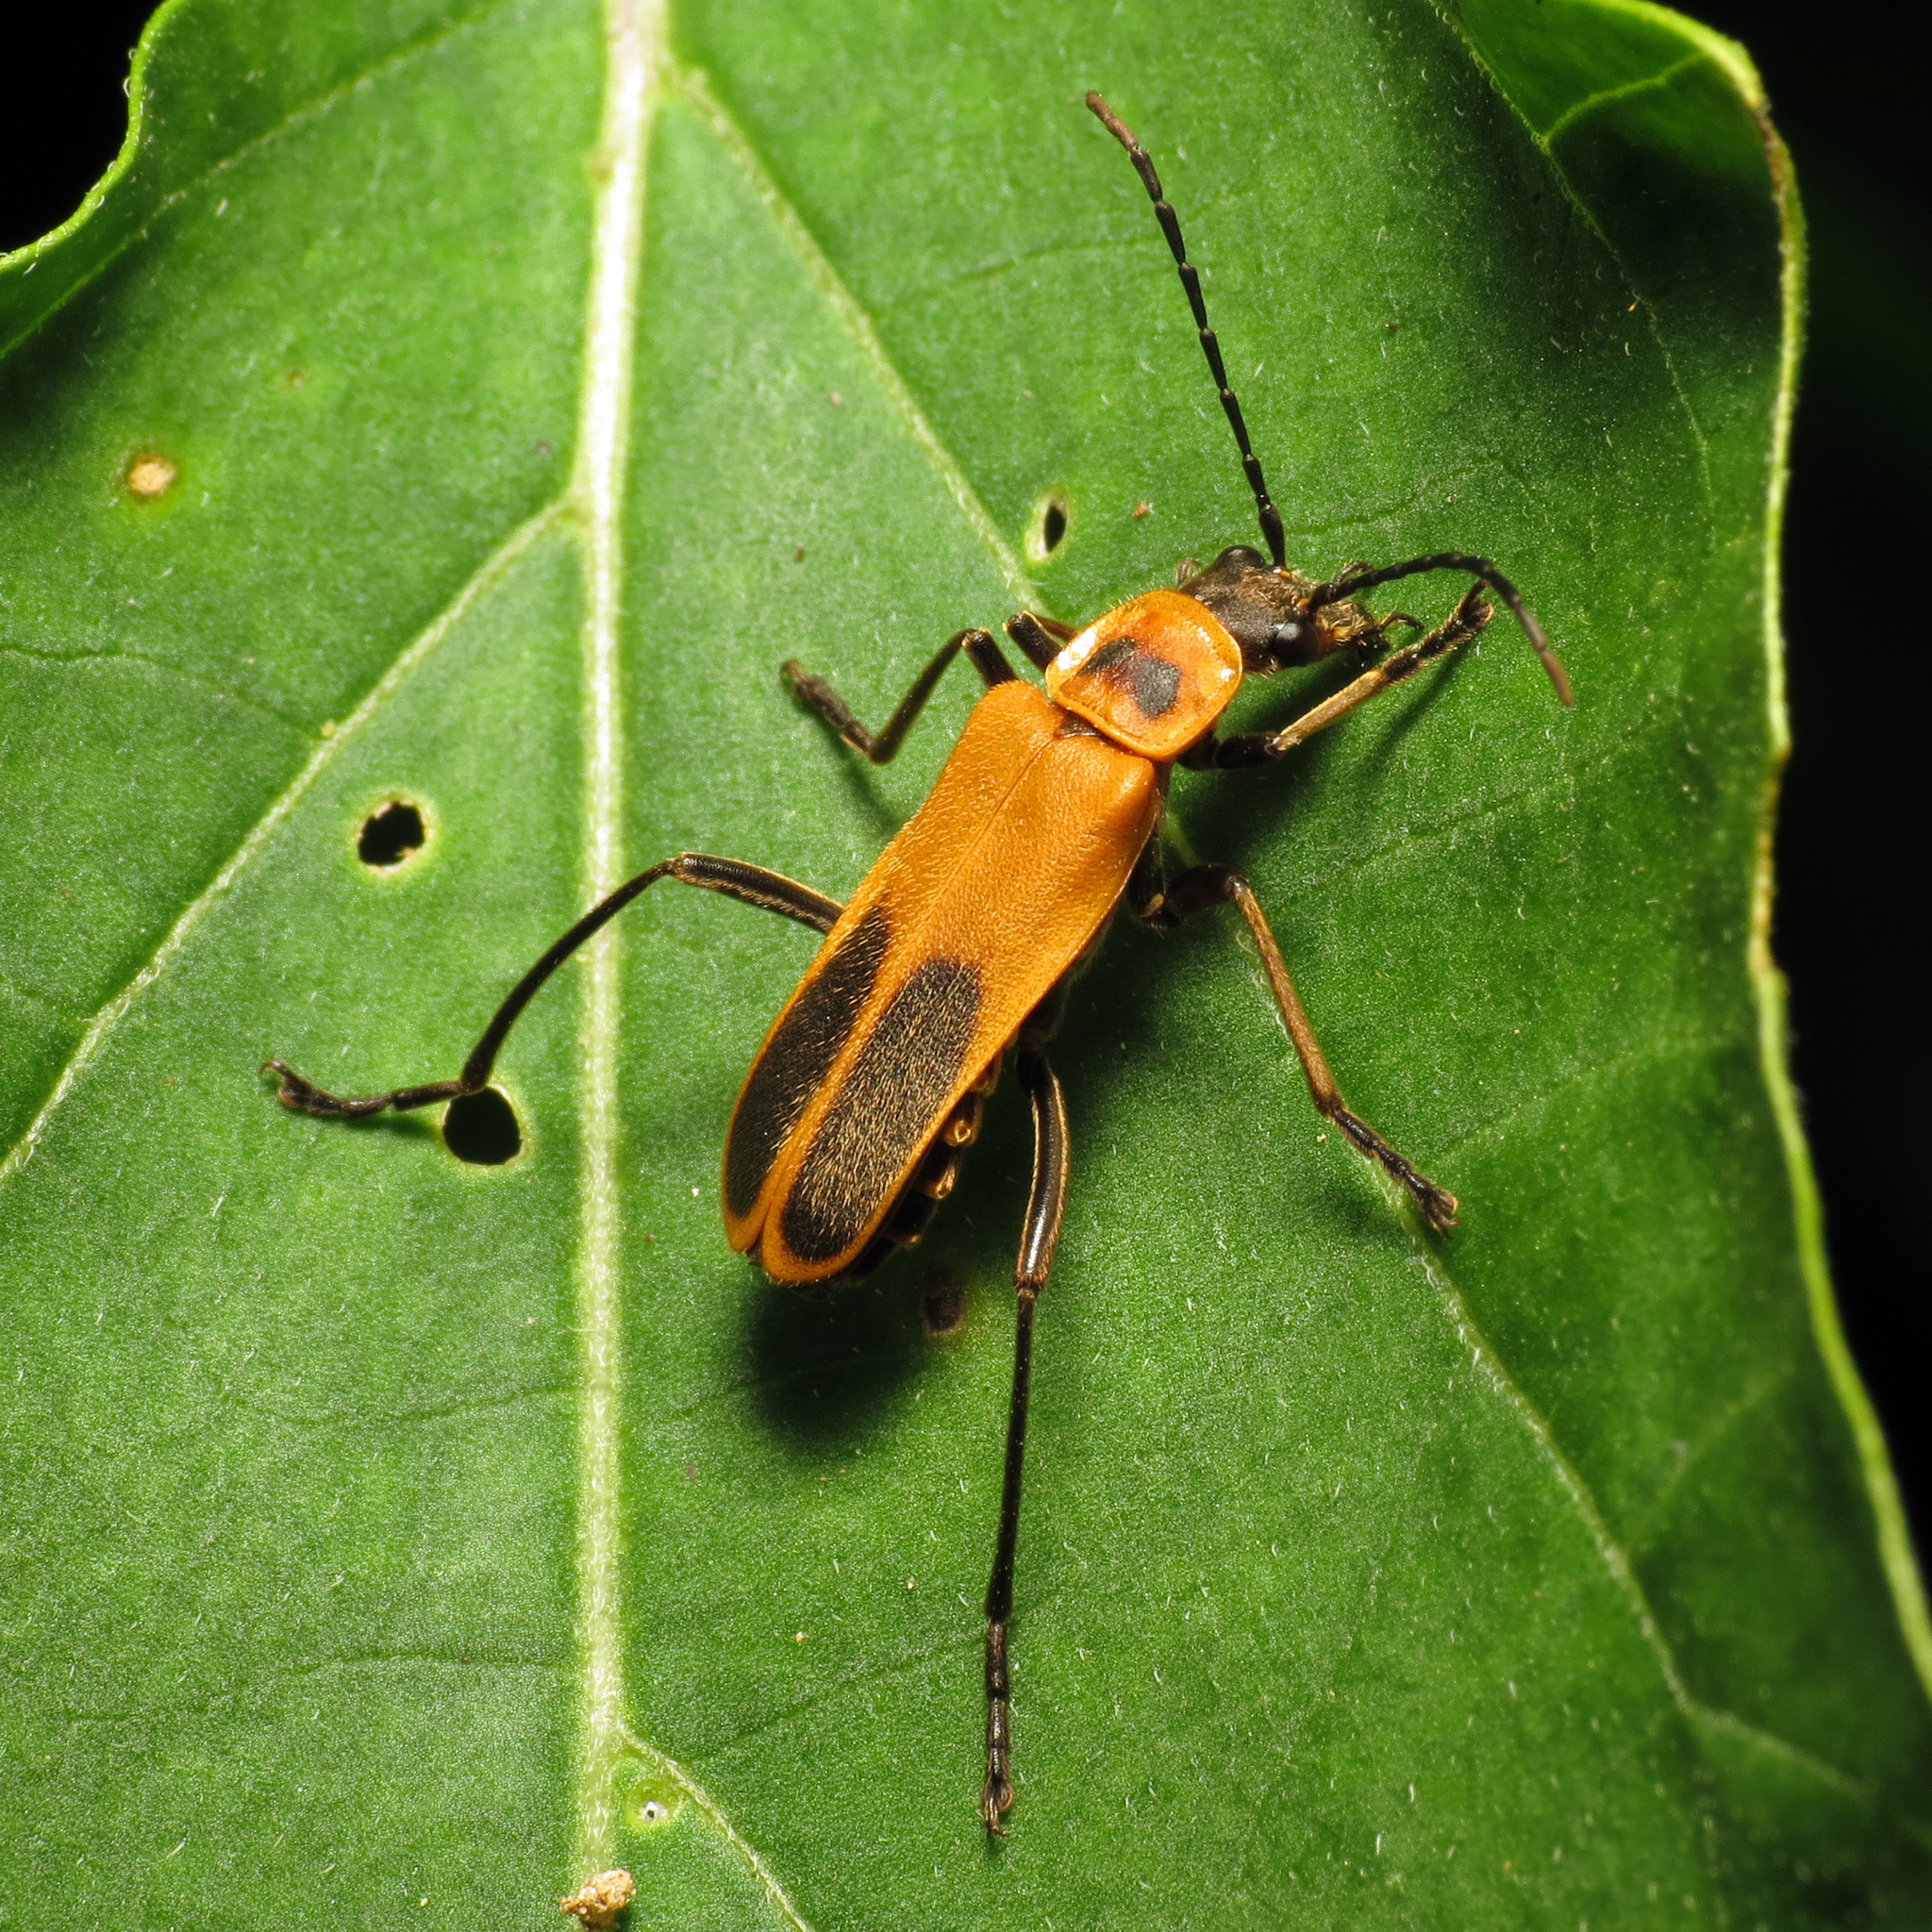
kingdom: Animalia
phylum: Arthropoda
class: Insecta
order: Coleoptera
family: Cantharidae
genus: Chauliognathus
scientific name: Chauliognathus pensylvanicus
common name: Goldenrod soldier beetle
